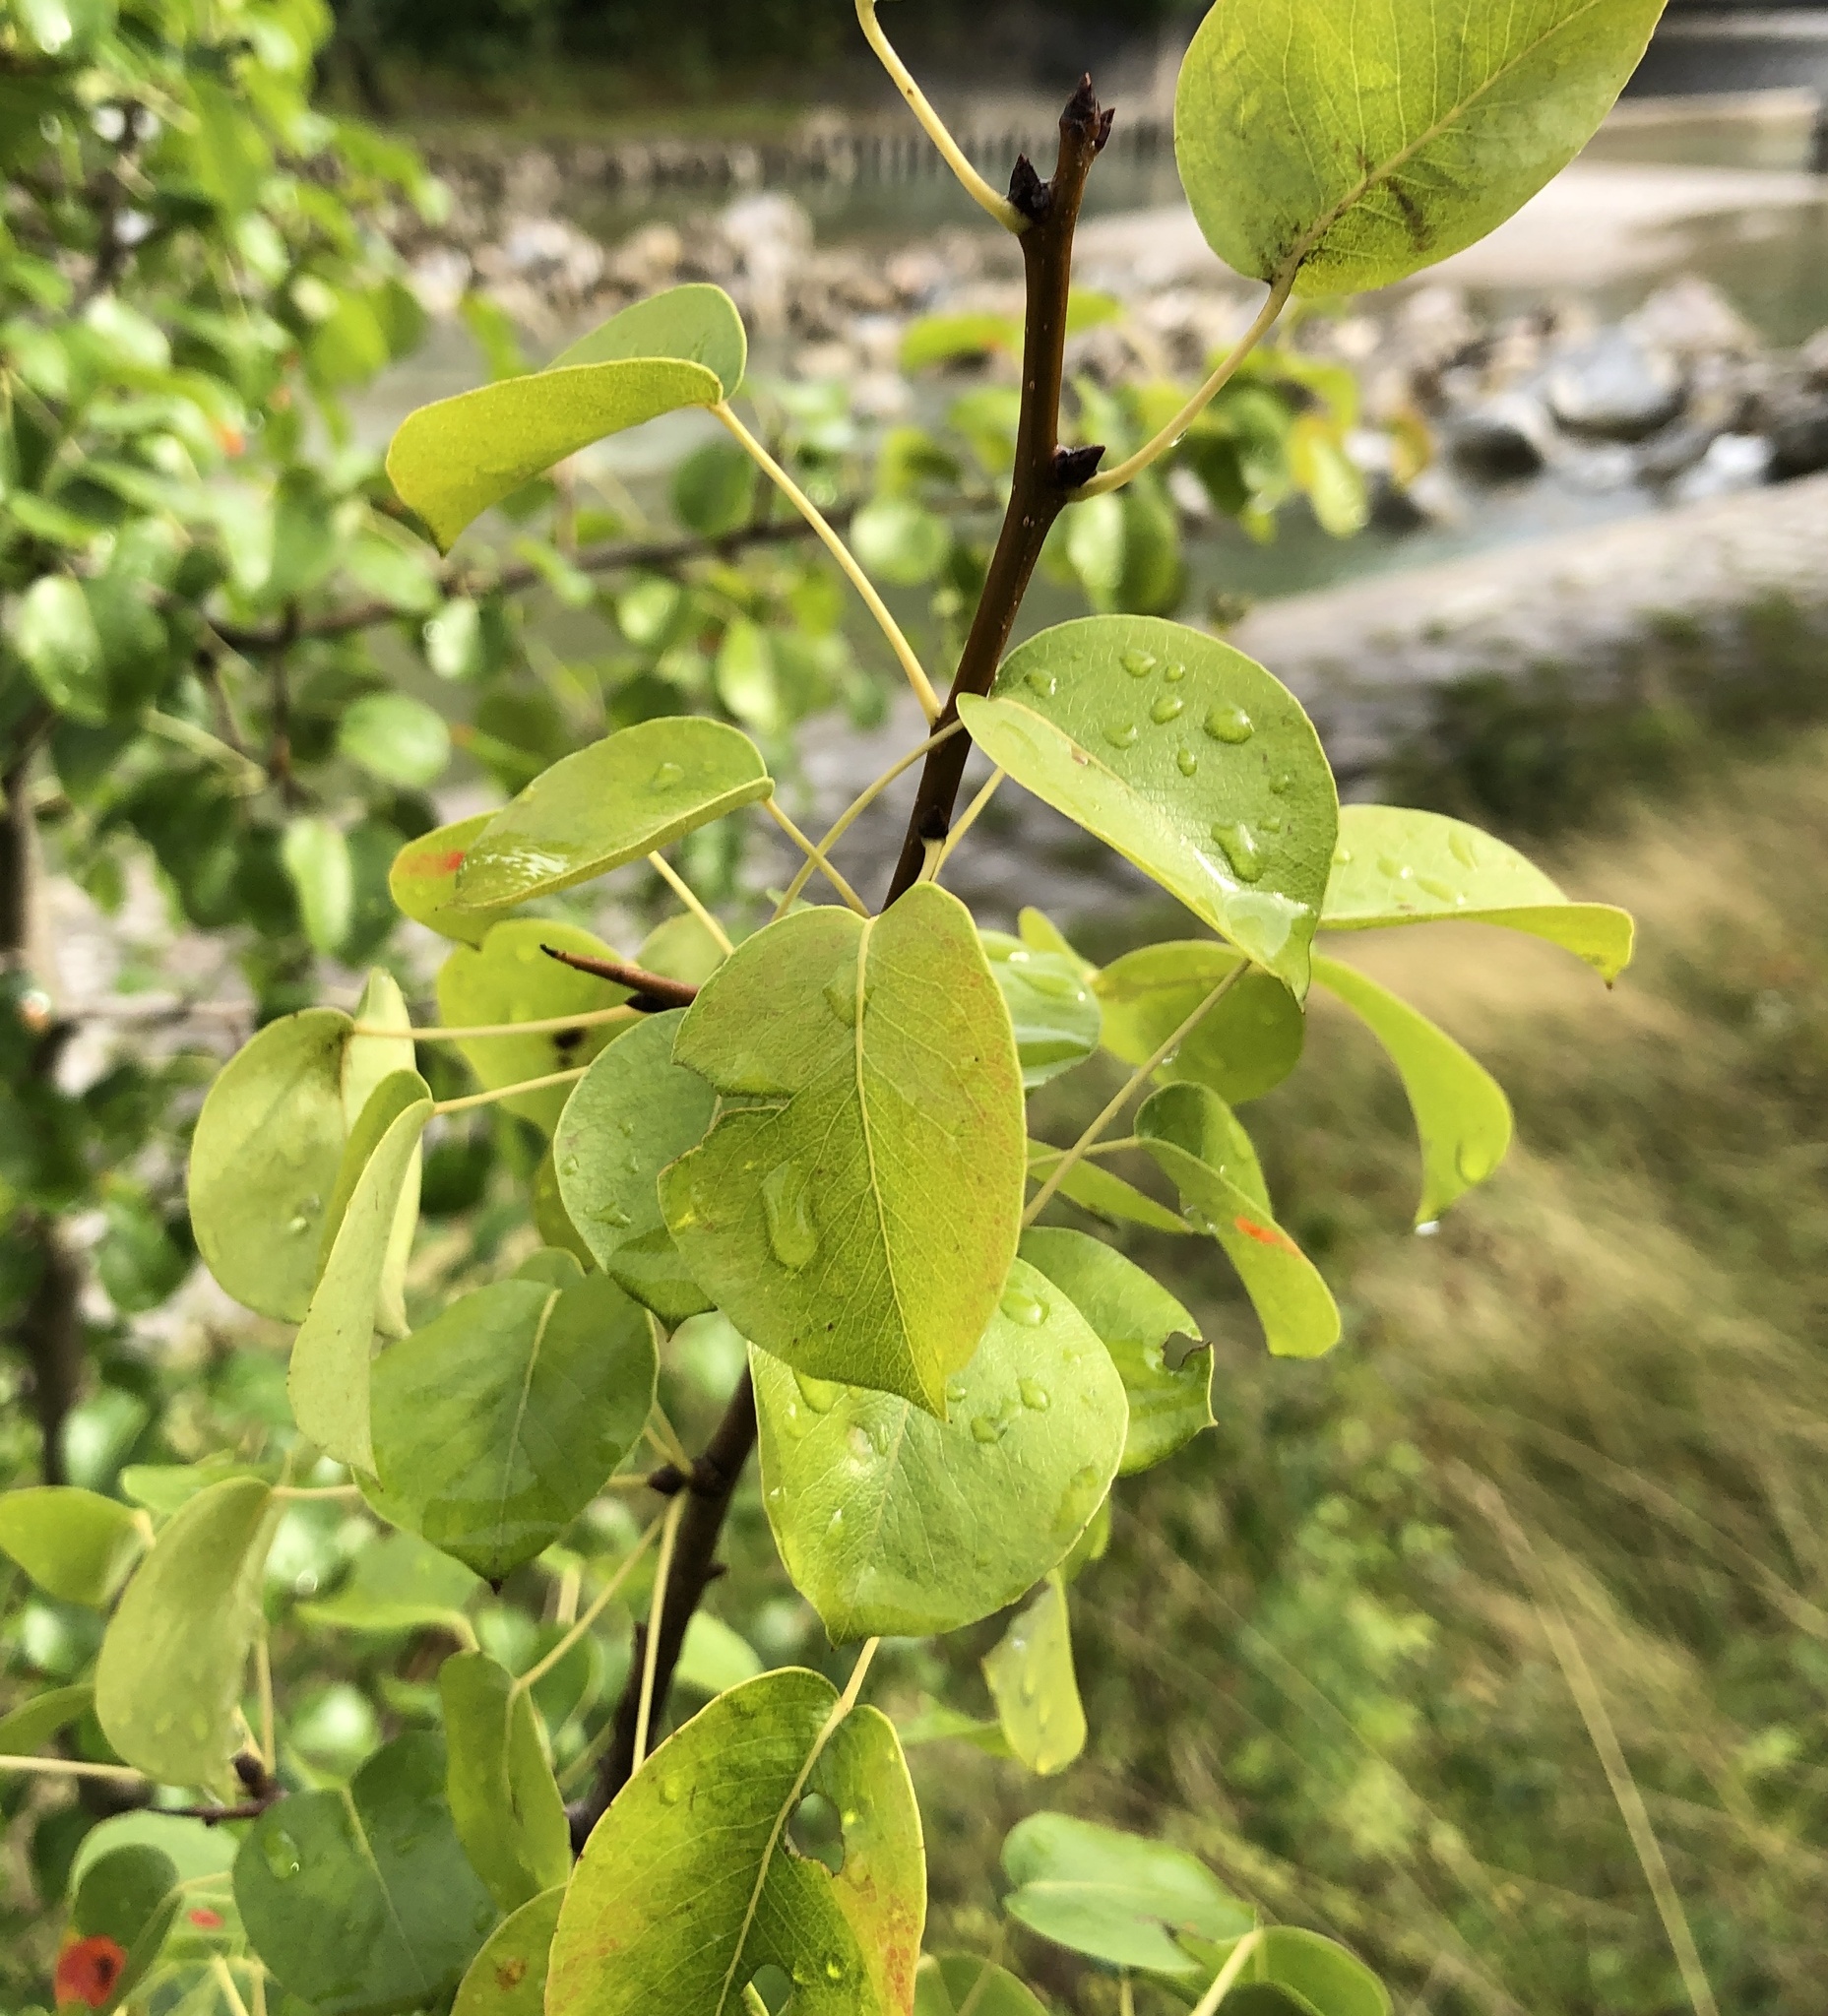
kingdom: Plantae
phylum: Tracheophyta
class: Magnoliopsida
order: Rosales
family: Rosaceae
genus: Pyrus
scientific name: Pyrus communis
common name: Pear
